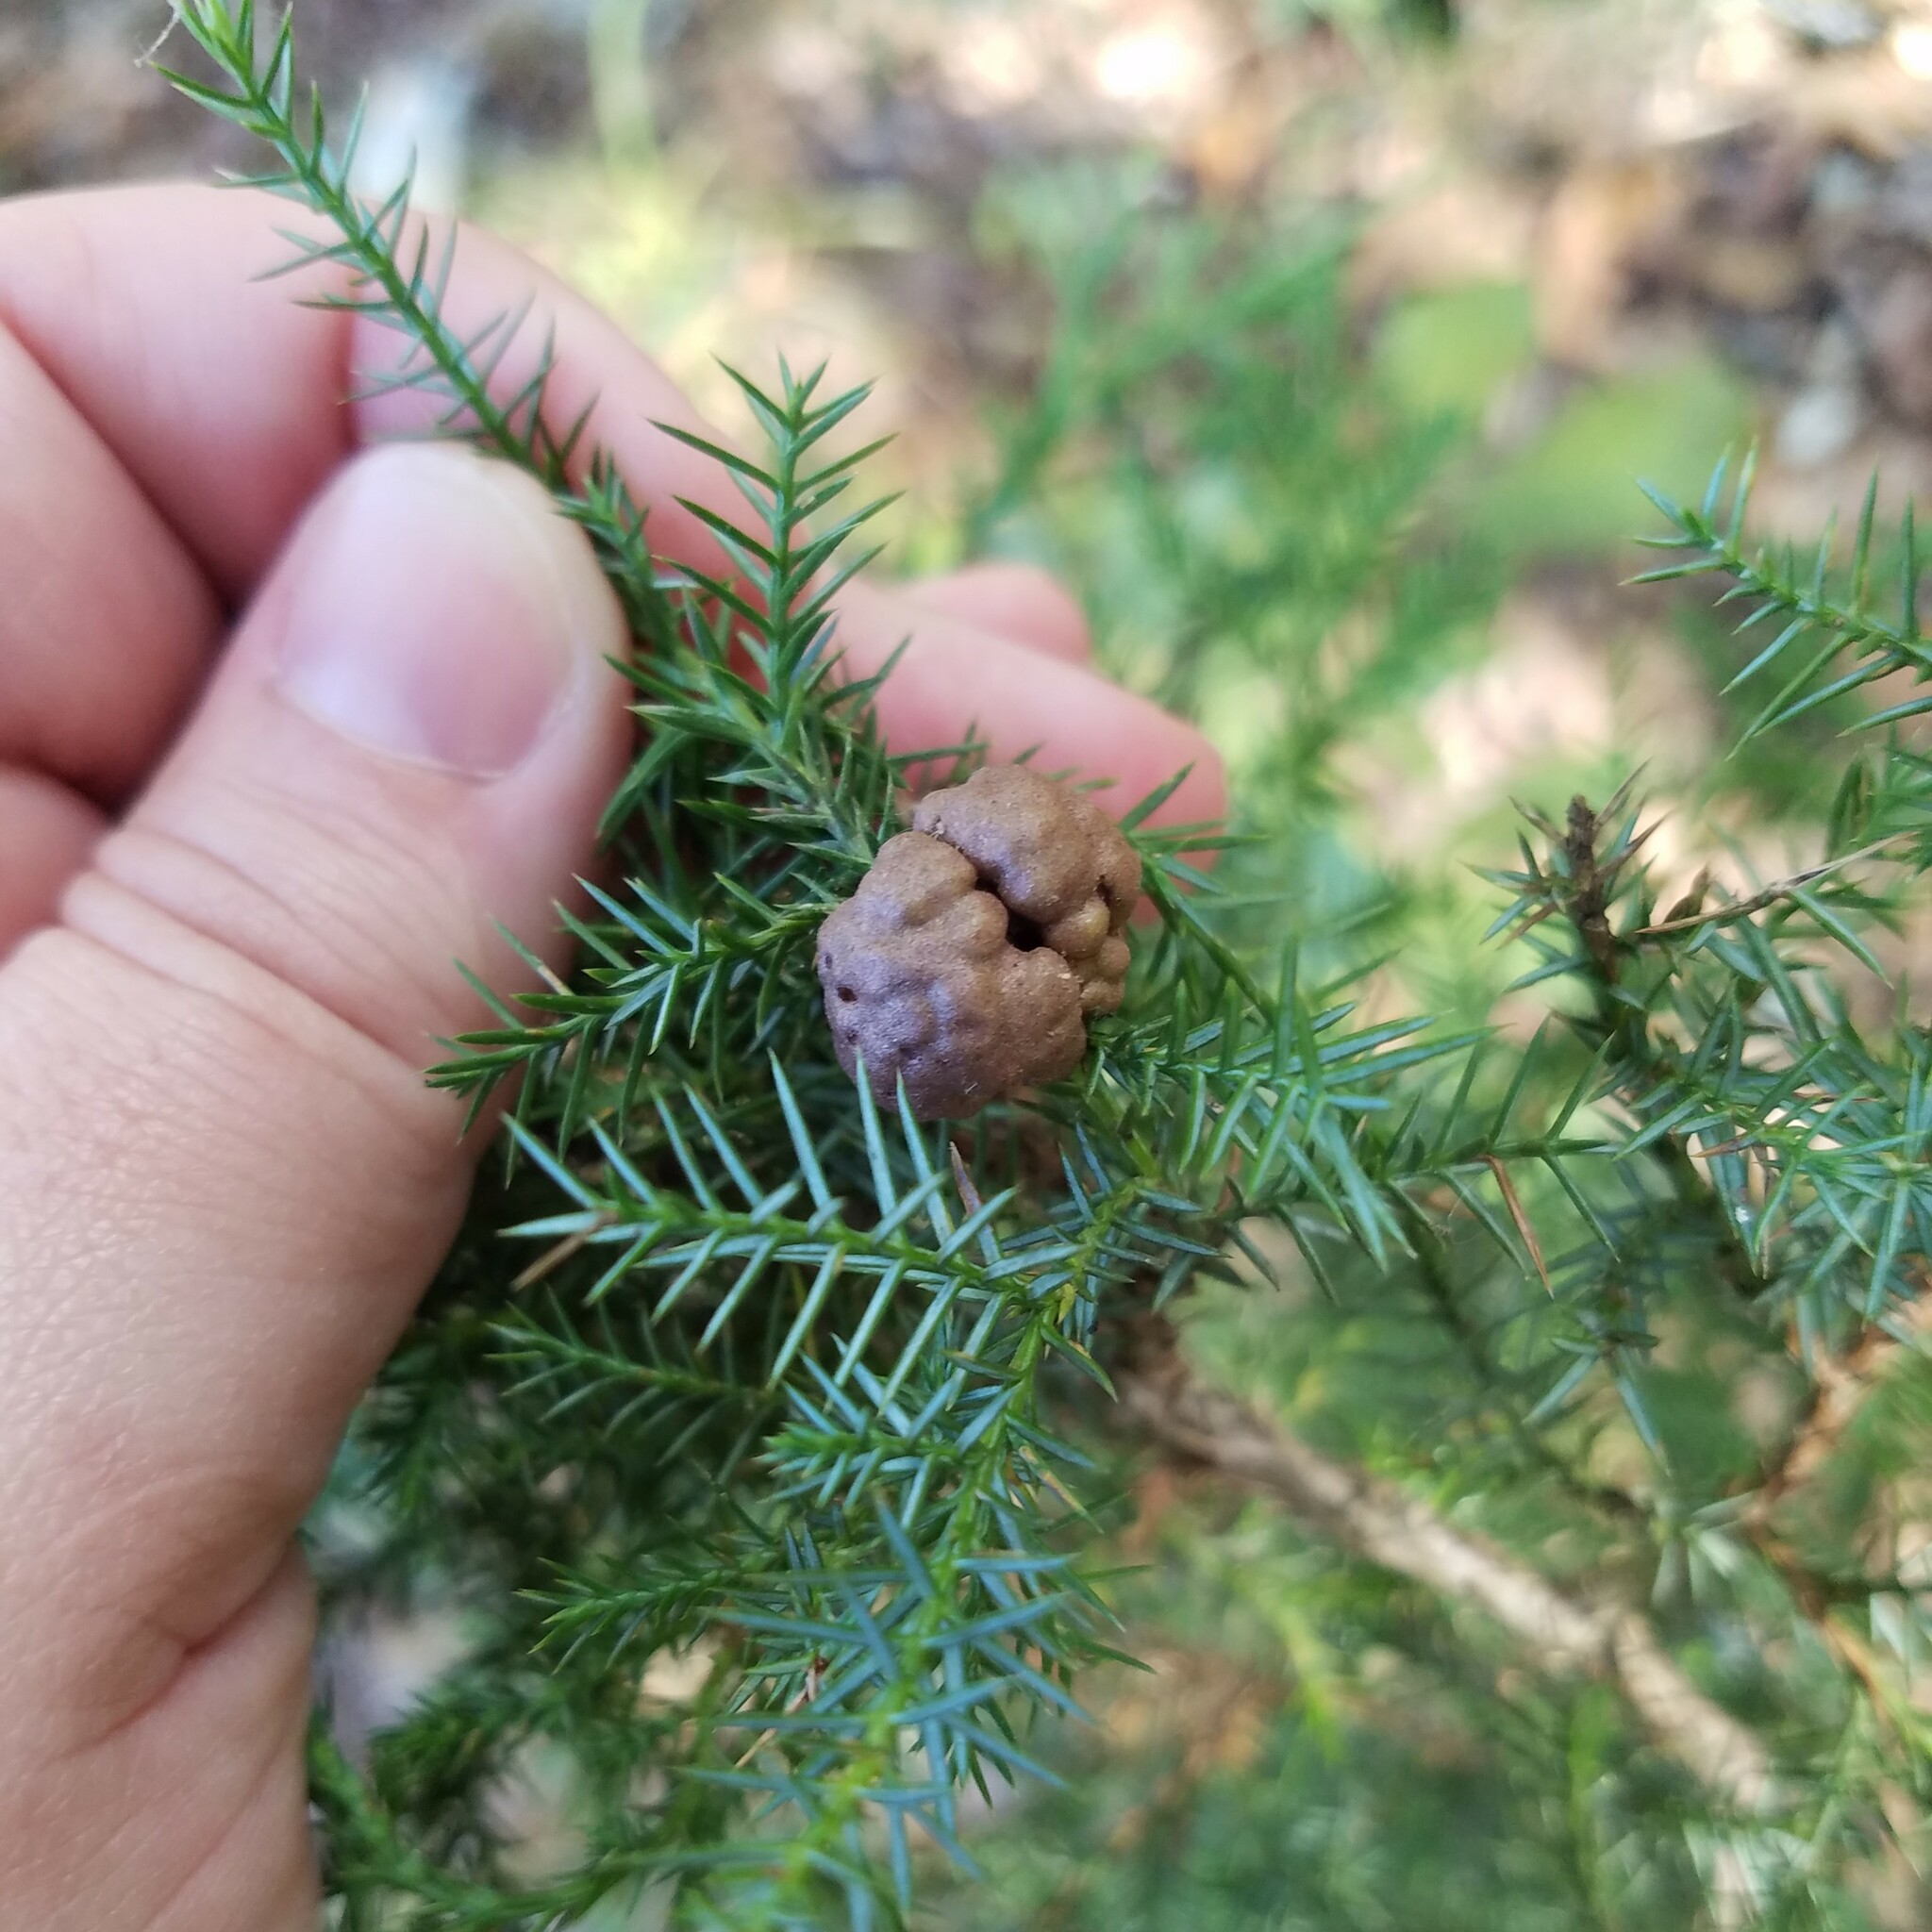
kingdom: Fungi
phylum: Basidiomycota
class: Pucciniomycetes
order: Pucciniales
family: Gymnosporangiaceae
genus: Gymnosporangium
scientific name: Gymnosporangium juniperi-virginianae
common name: Juniper-apple rust
